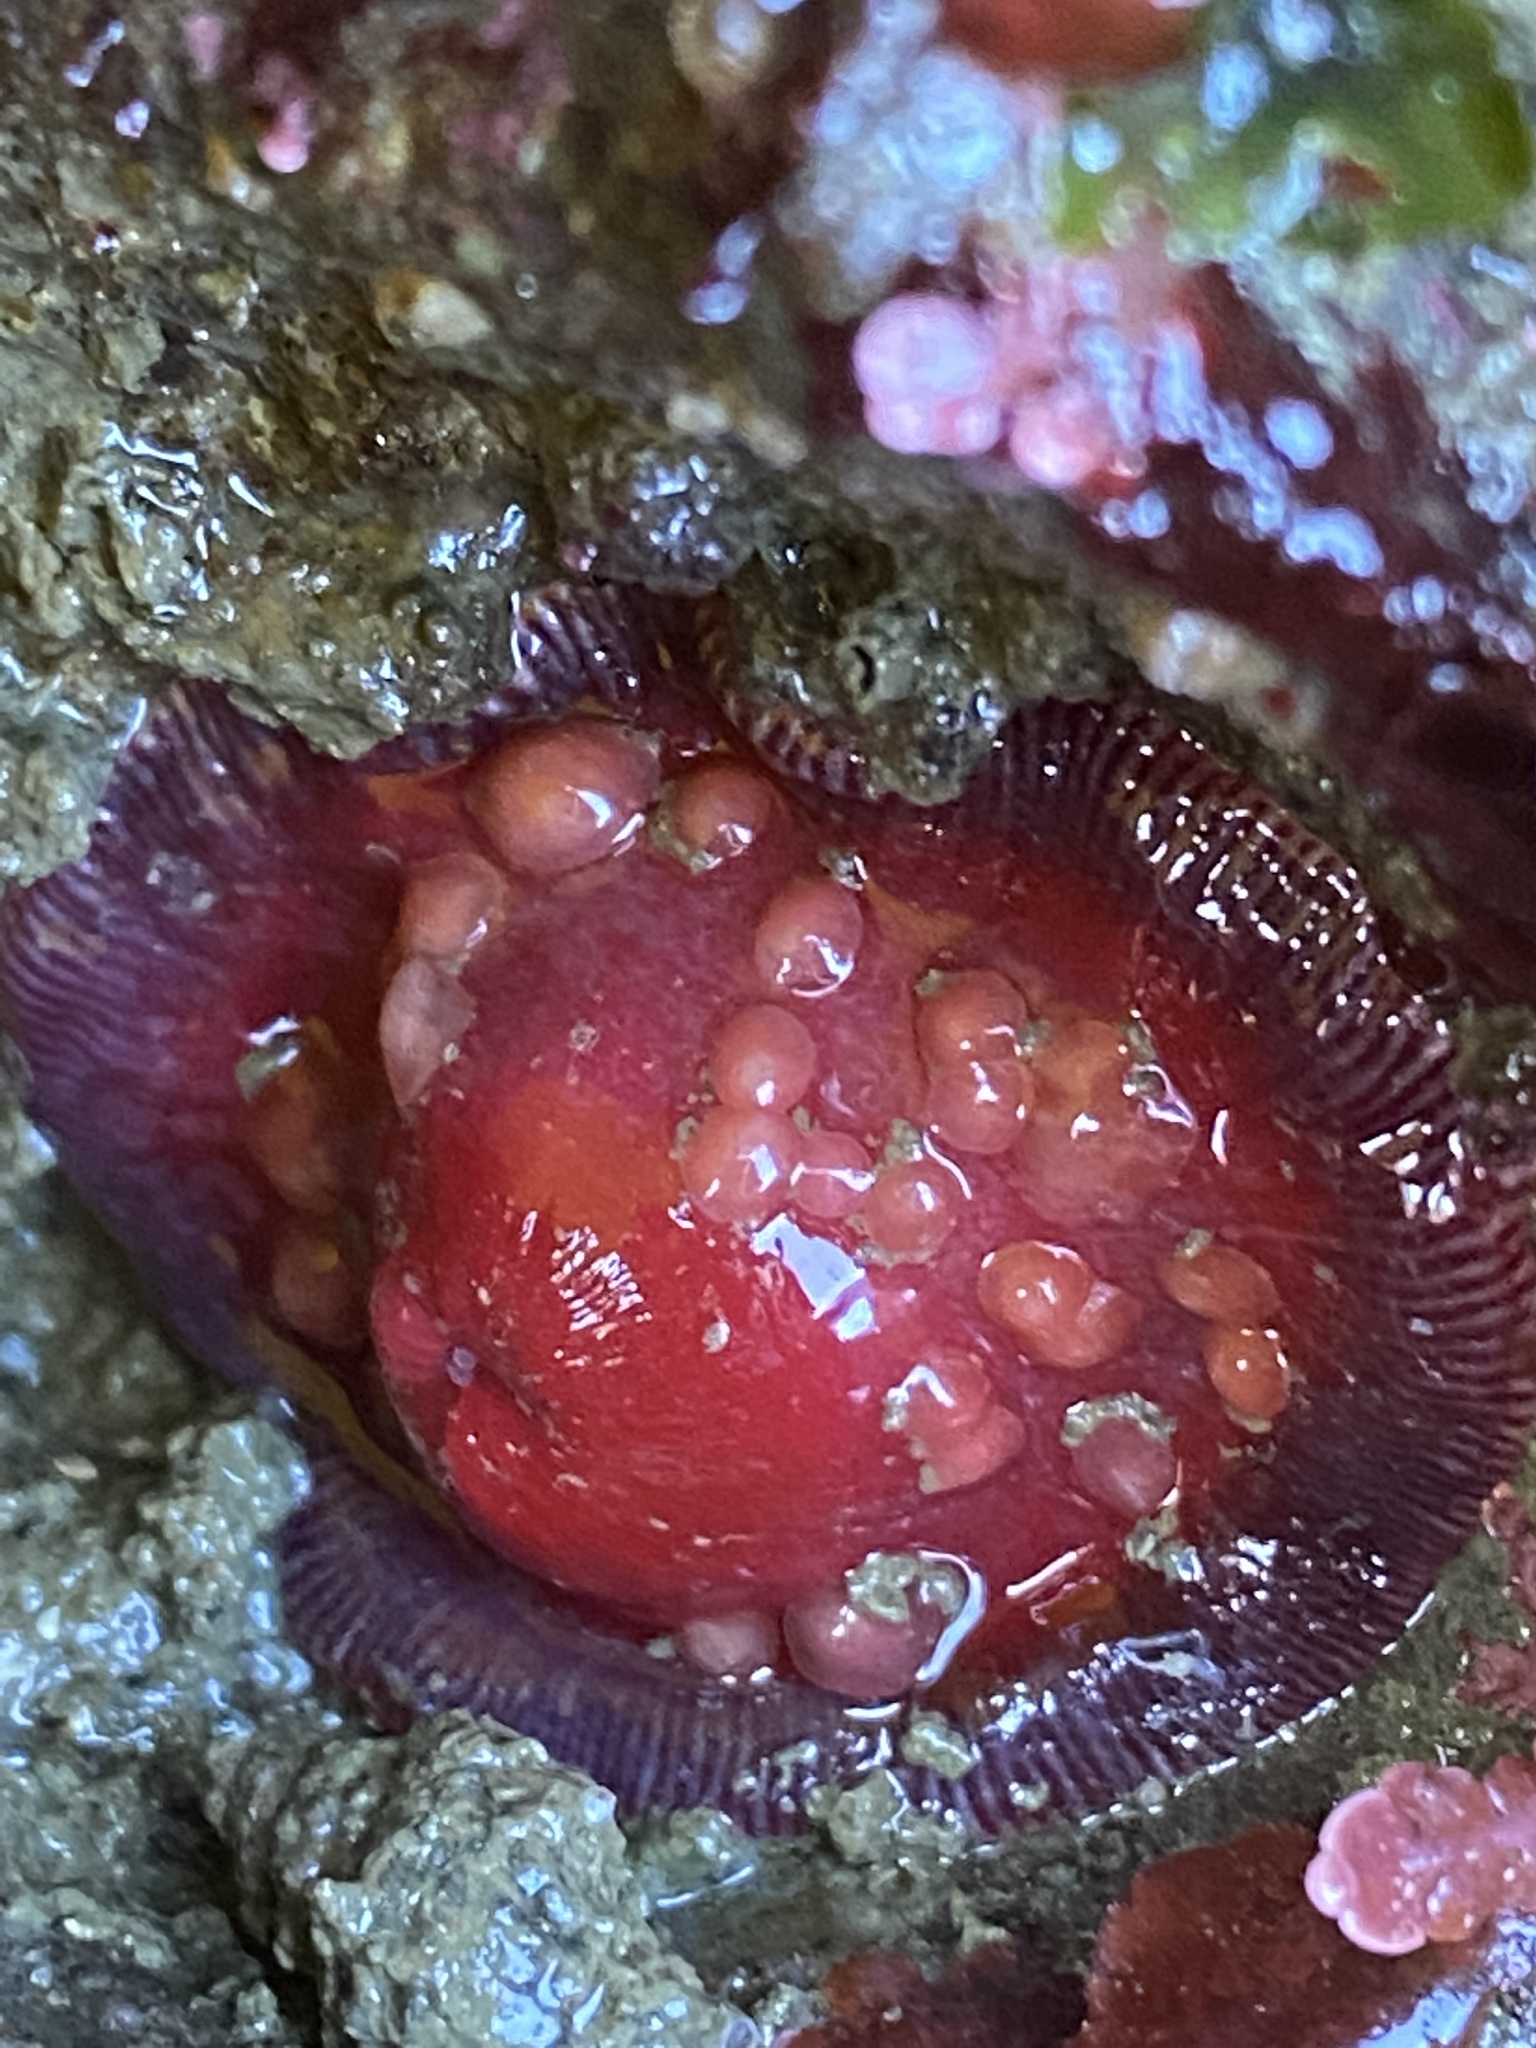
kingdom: Animalia
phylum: Cnidaria
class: Anthozoa
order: Actiniaria
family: Actiniidae
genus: Epiactis
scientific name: Epiactis lisbethae
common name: Giant brooding anemone
